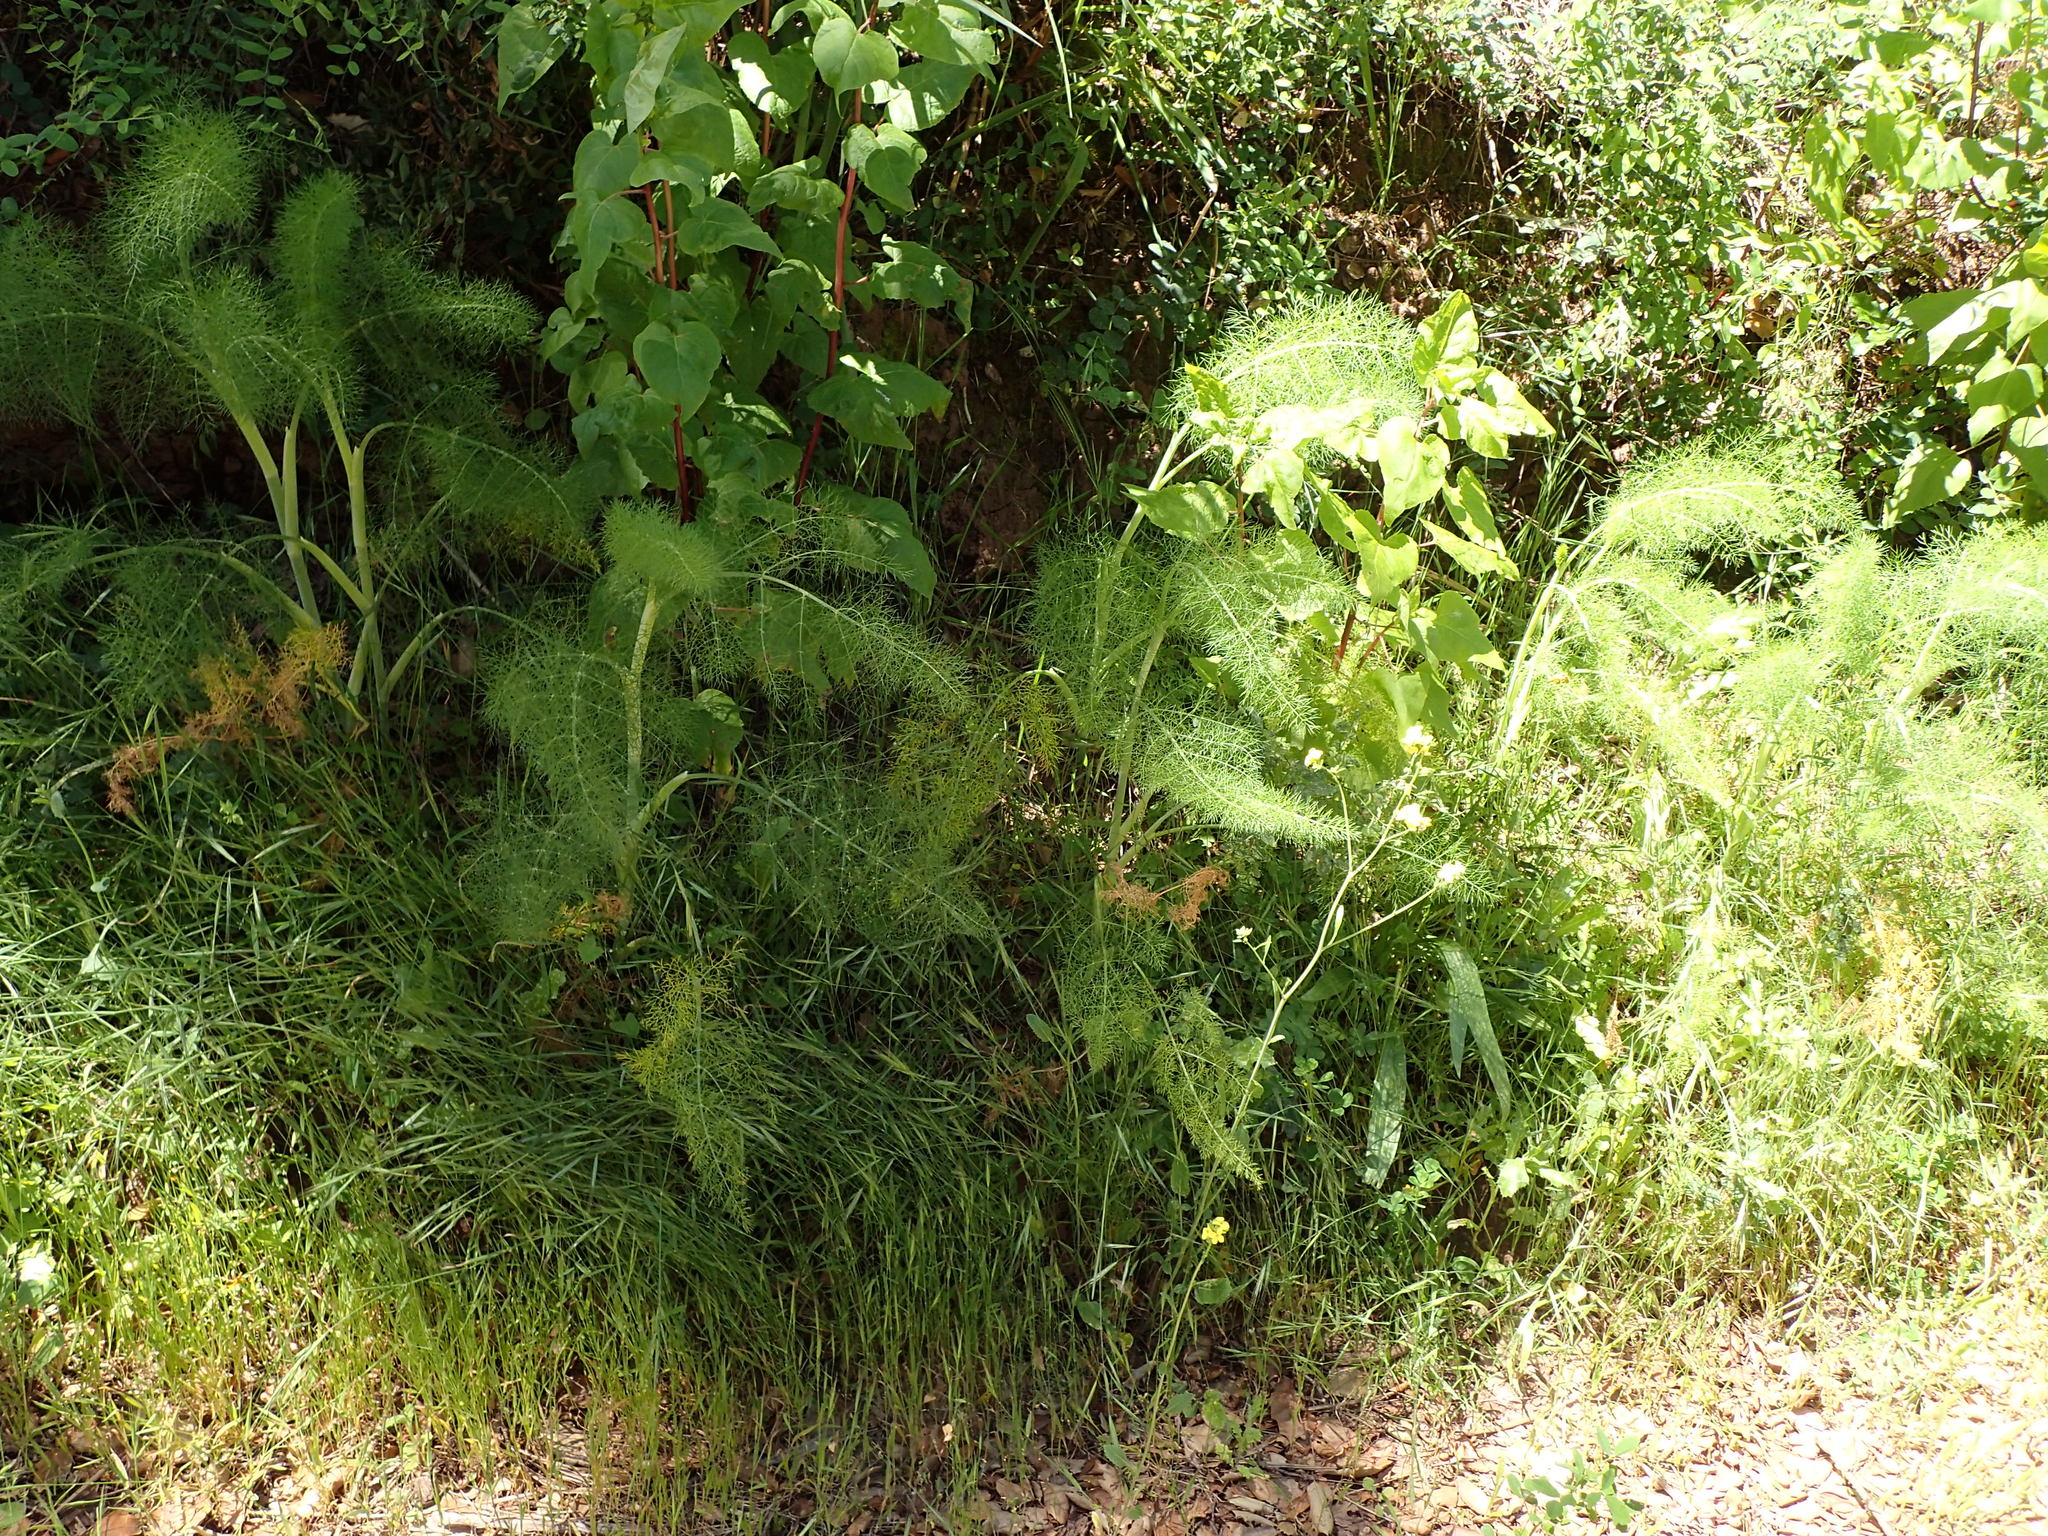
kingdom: Plantae
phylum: Tracheophyta
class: Magnoliopsida
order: Apiales
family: Apiaceae
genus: Foeniculum
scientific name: Foeniculum vulgare
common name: Fennel
